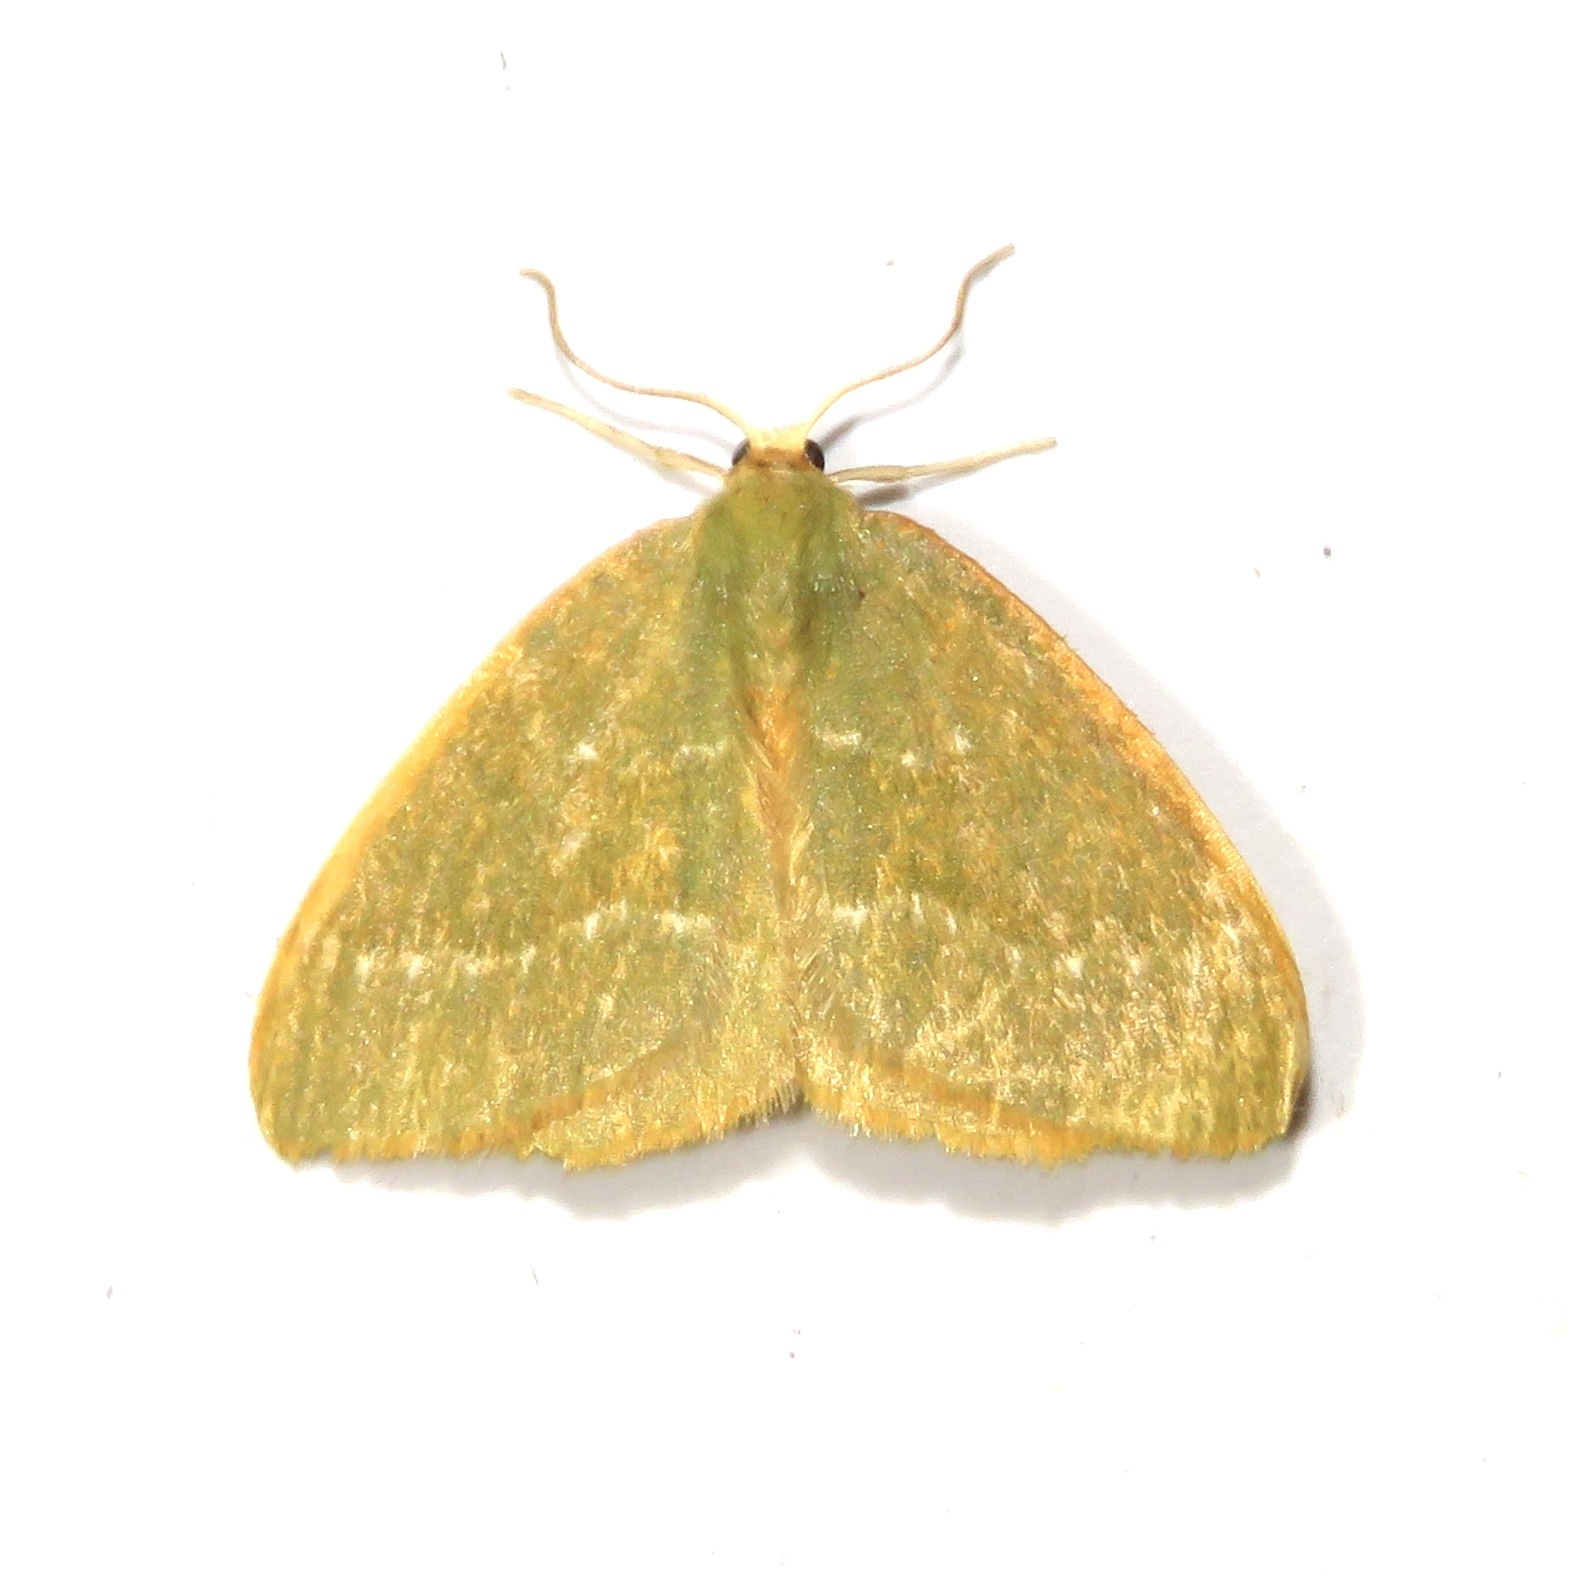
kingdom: Animalia
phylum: Arthropoda
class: Insecta
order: Lepidoptera
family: Geometridae
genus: Thalera
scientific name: Thalera pistasciaria
